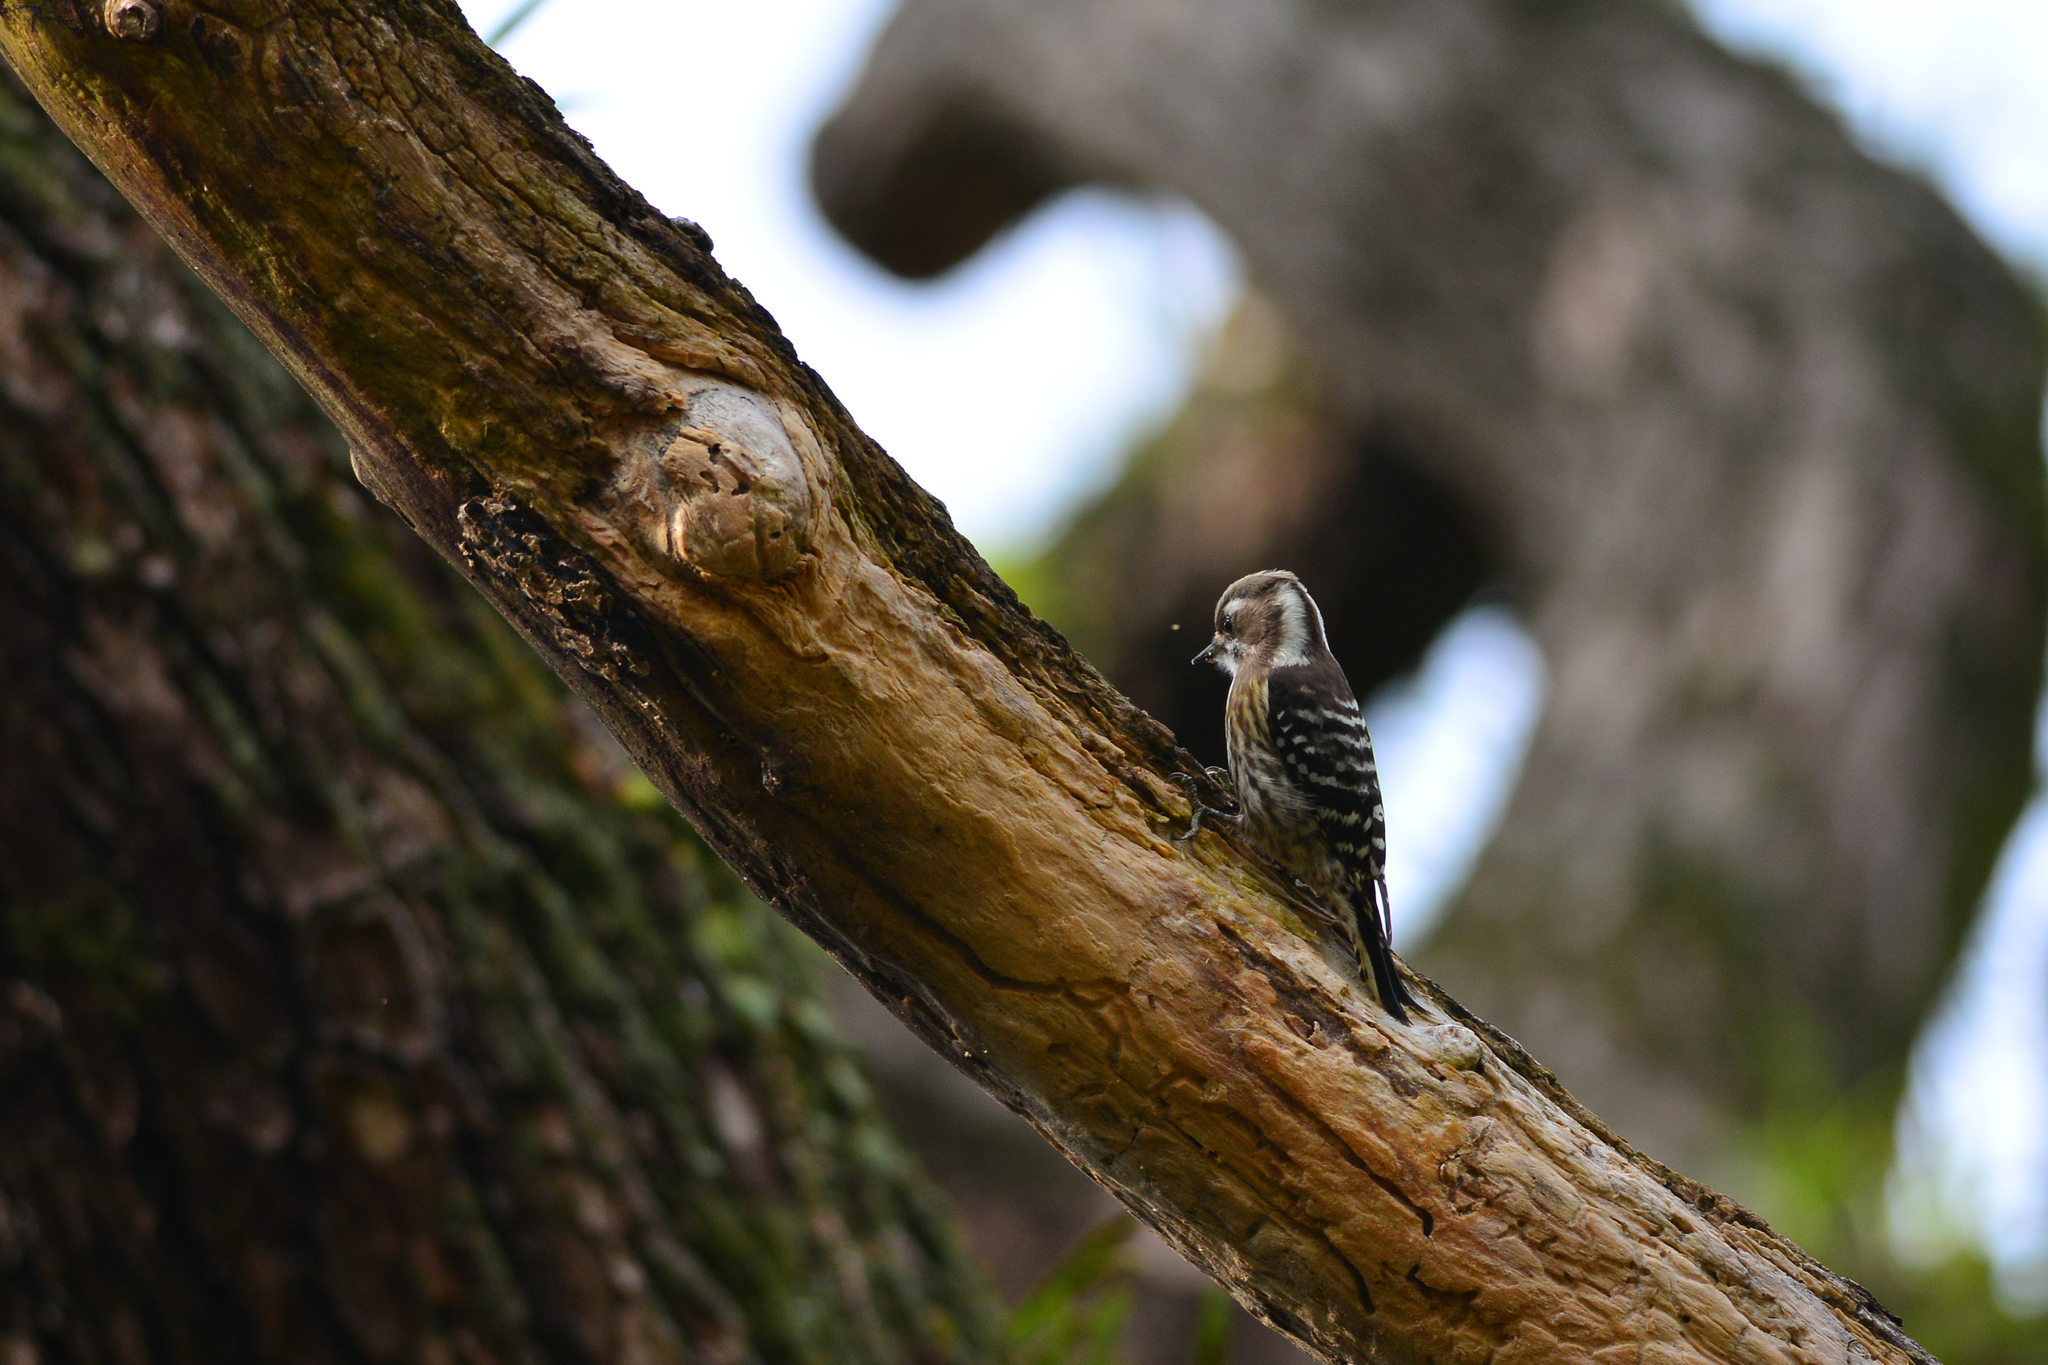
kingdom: Animalia
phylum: Chordata
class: Aves
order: Piciformes
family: Picidae
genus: Yungipicus
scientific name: Yungipicus kizuki
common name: Japanese pygmy woodpecker
